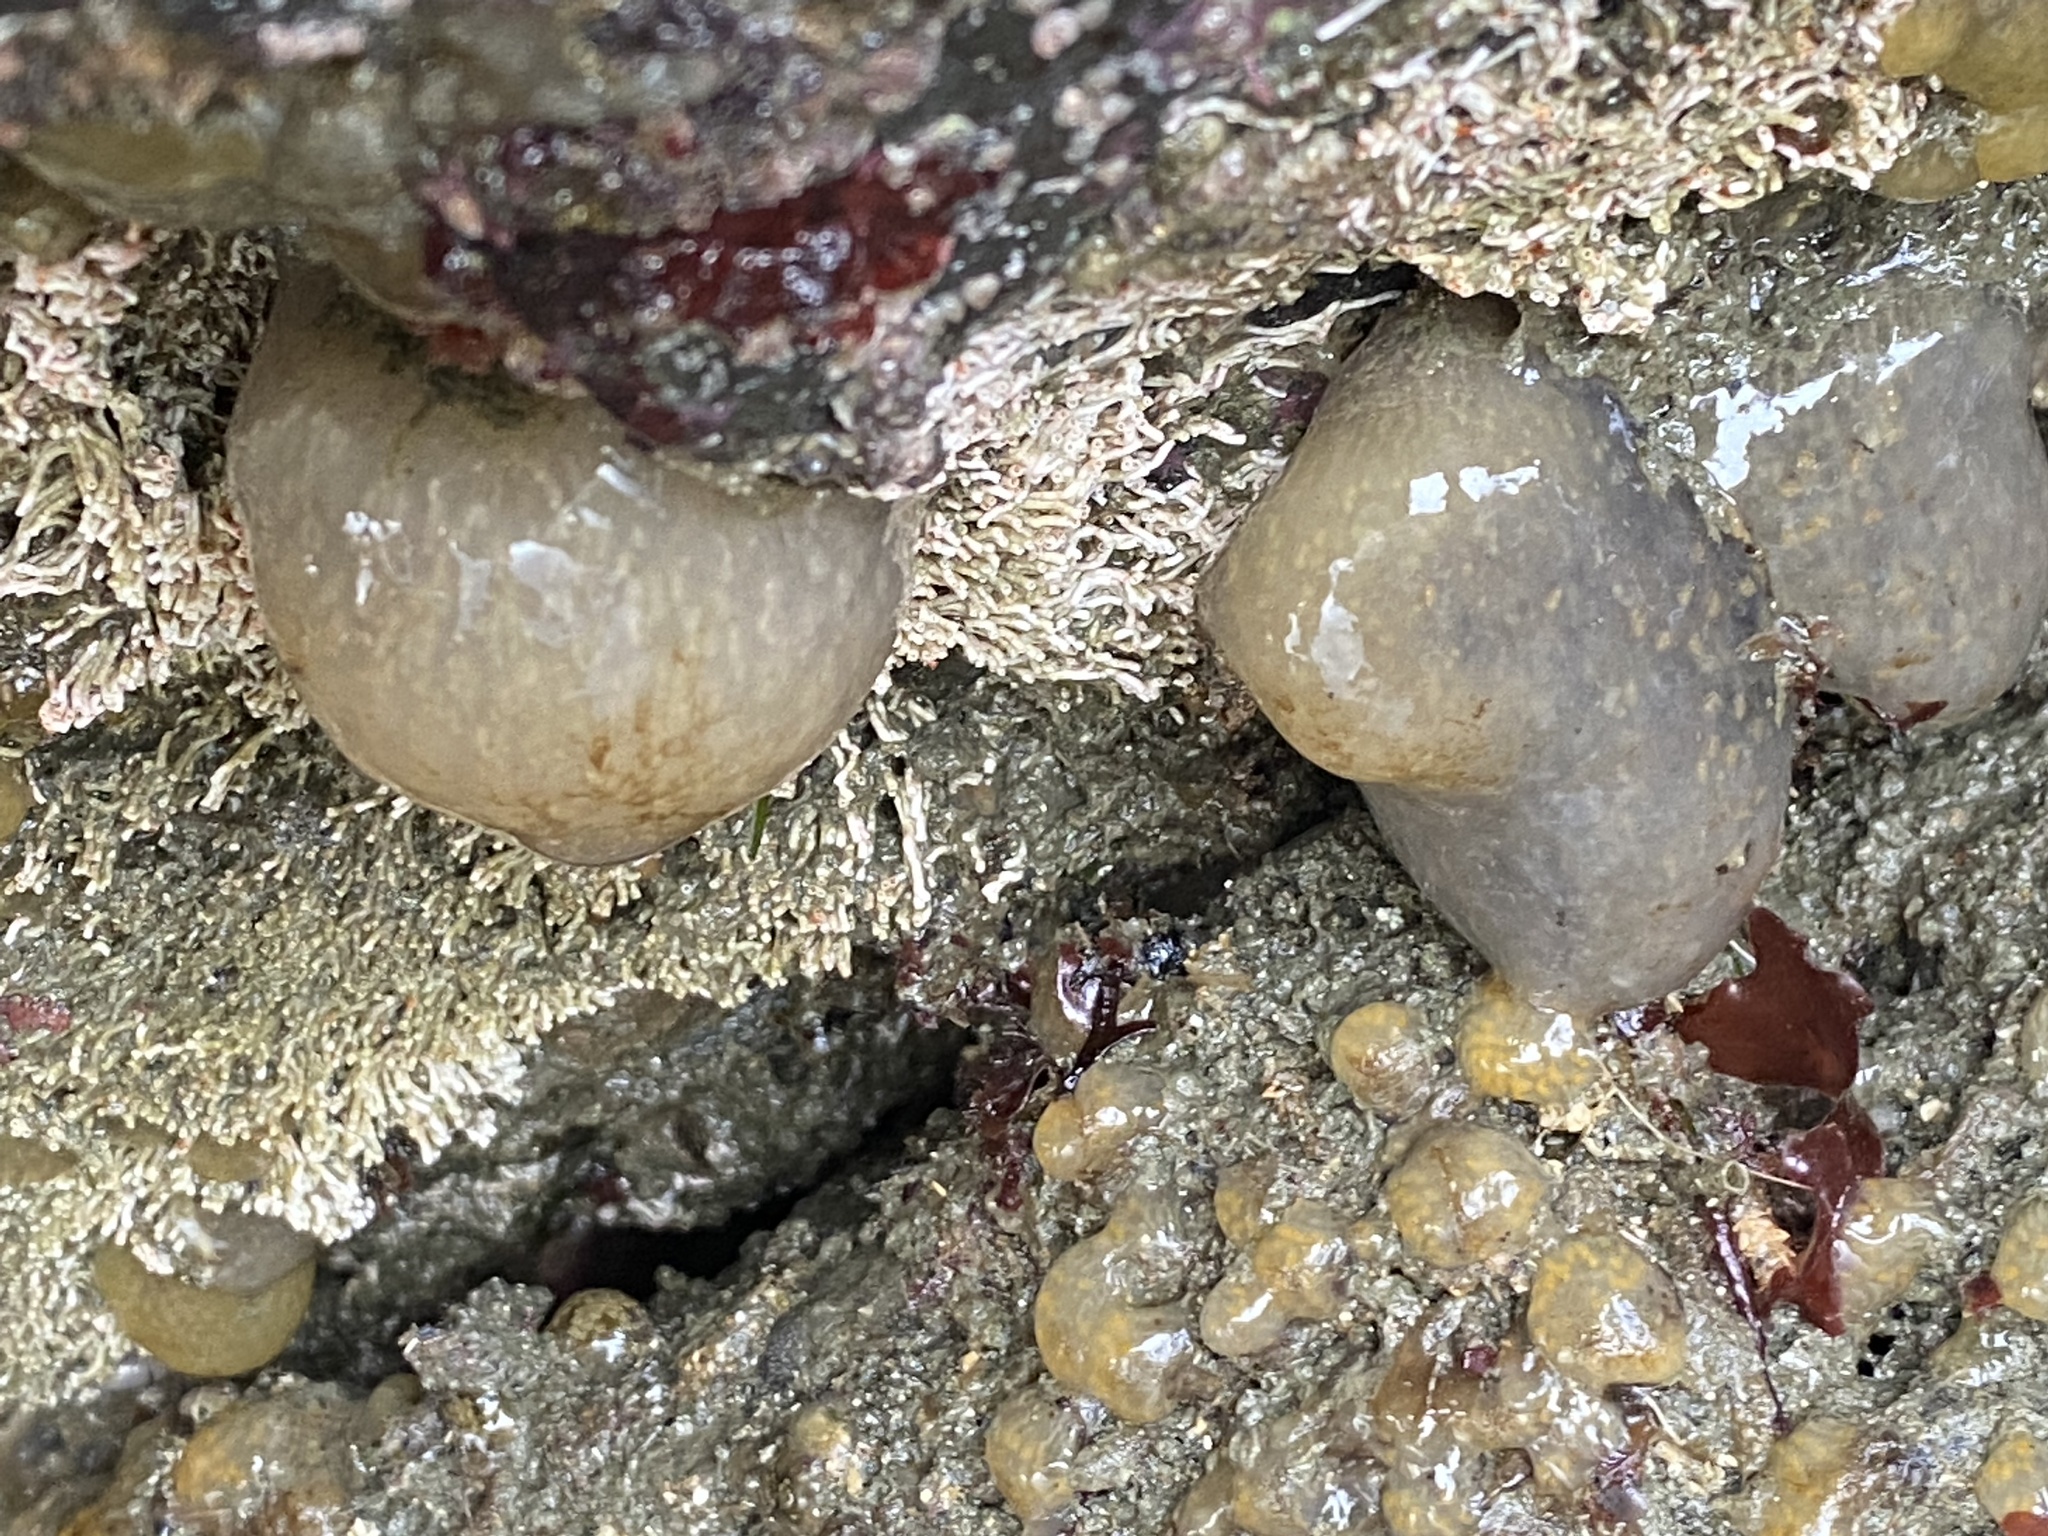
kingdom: Animalia
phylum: Chordata
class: Ascidiacea
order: Aplousobranchia
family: Polyclinidae
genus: Aplidium
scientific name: Aplidium californicum
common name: Sea pork
